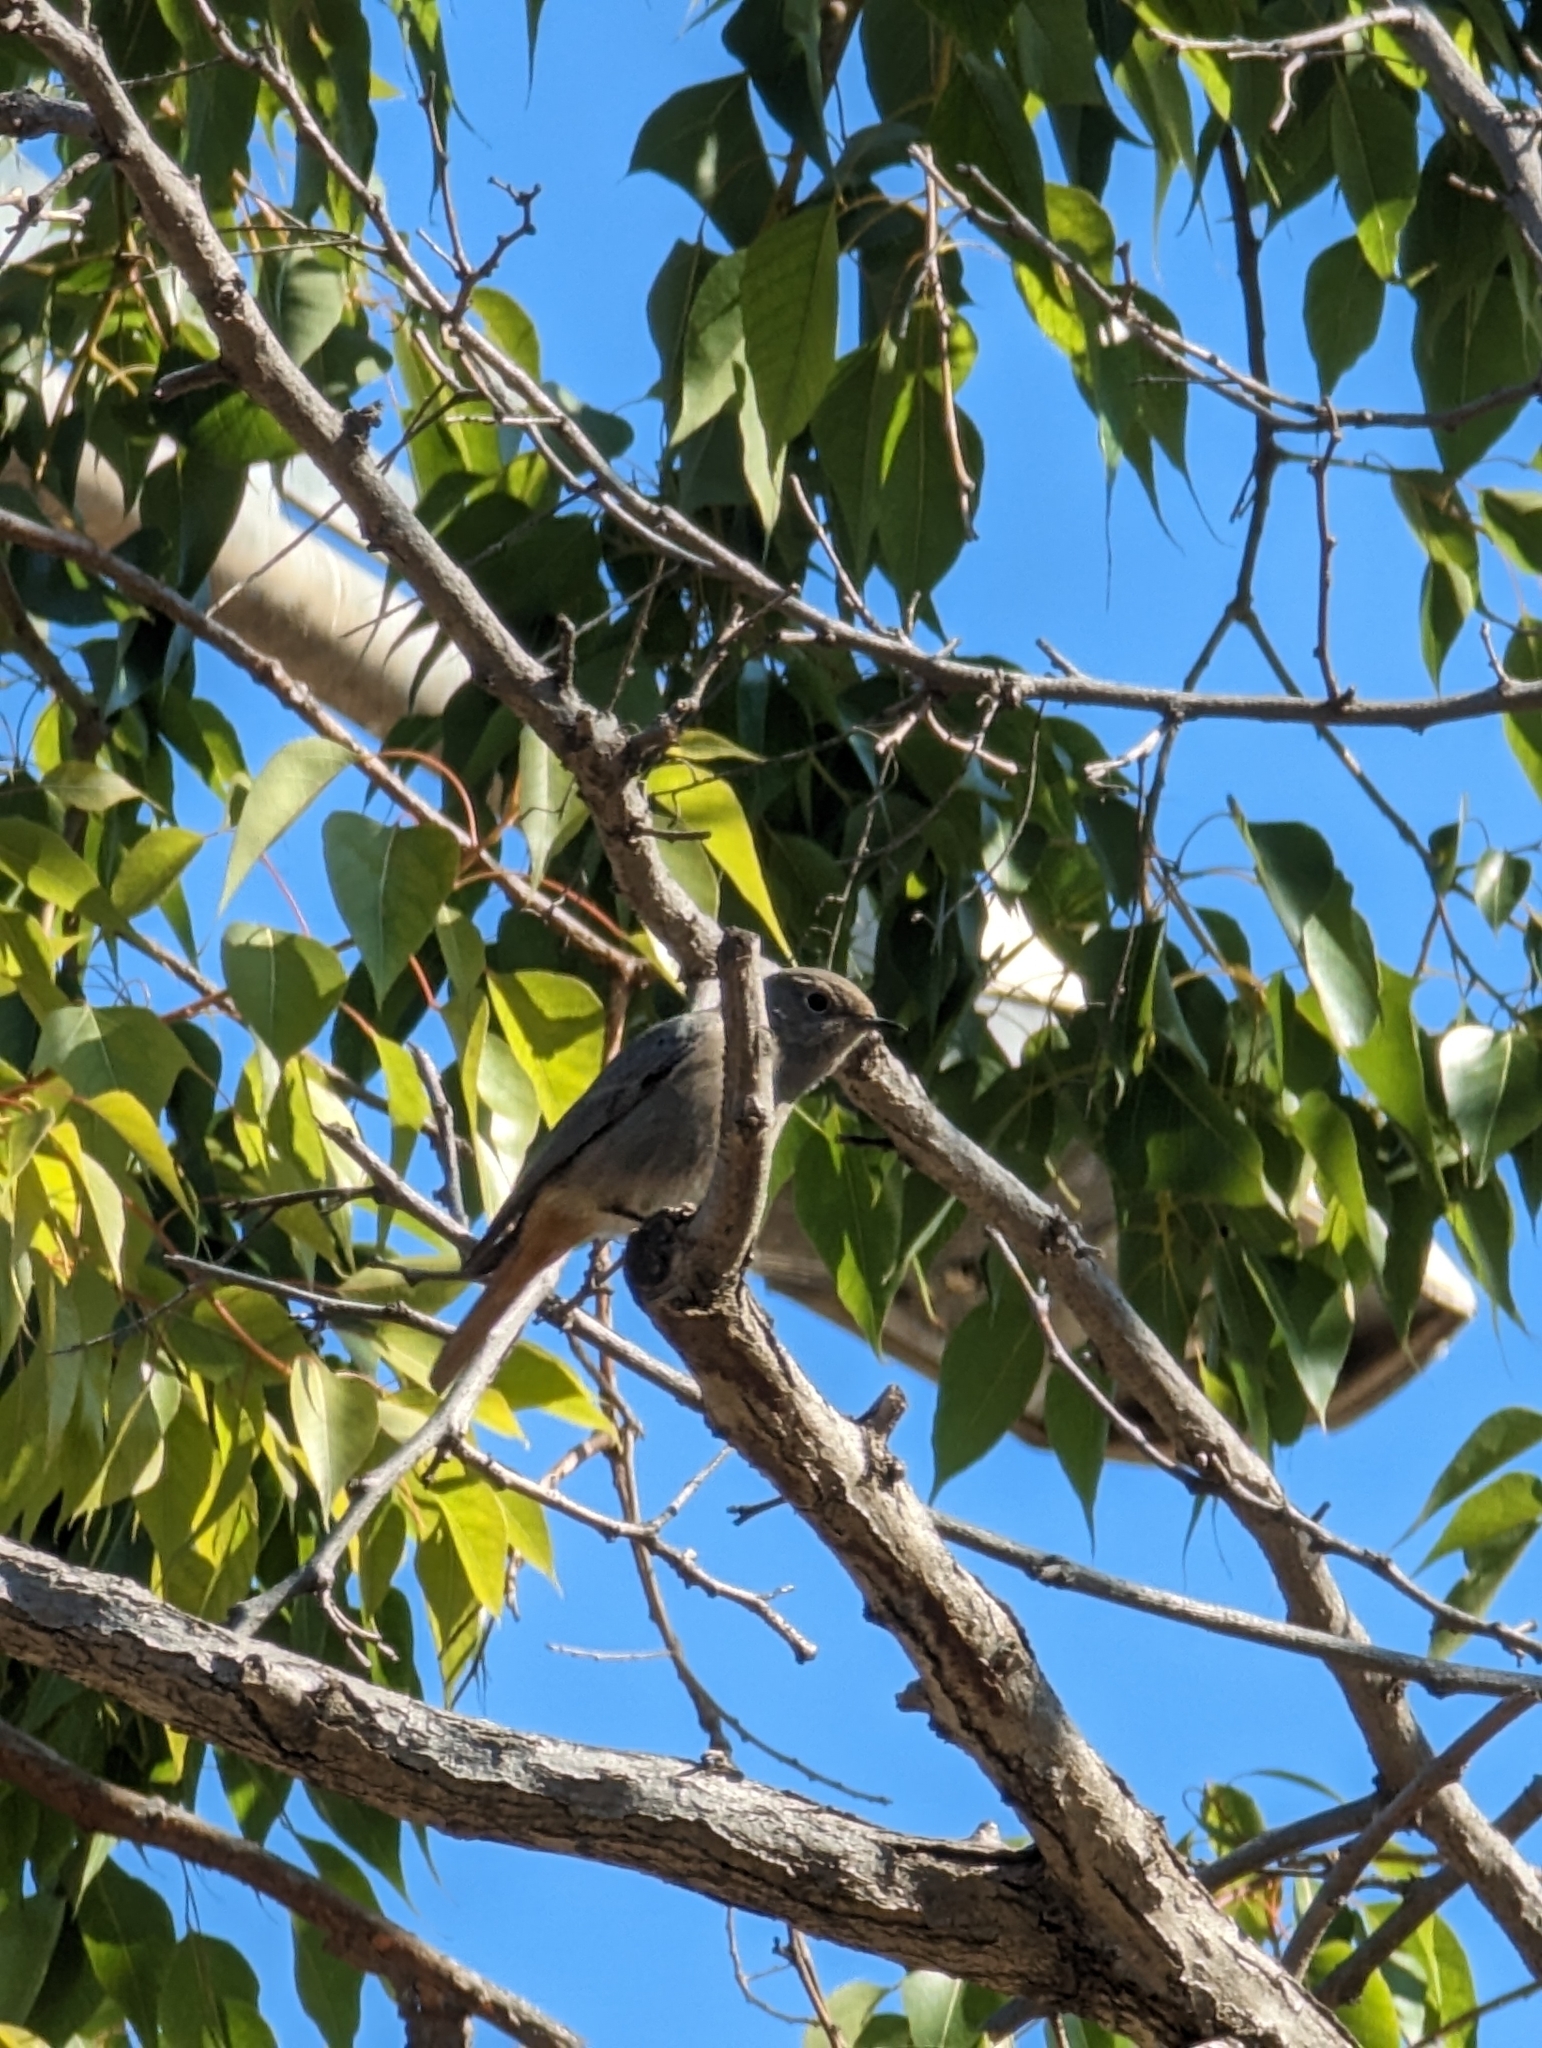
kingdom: Animalia
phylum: Chordata
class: Aves
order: Passeriformes
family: Muscicapidae
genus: Phoenicurus
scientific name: Phoenicurus ochruros
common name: Black redstart
